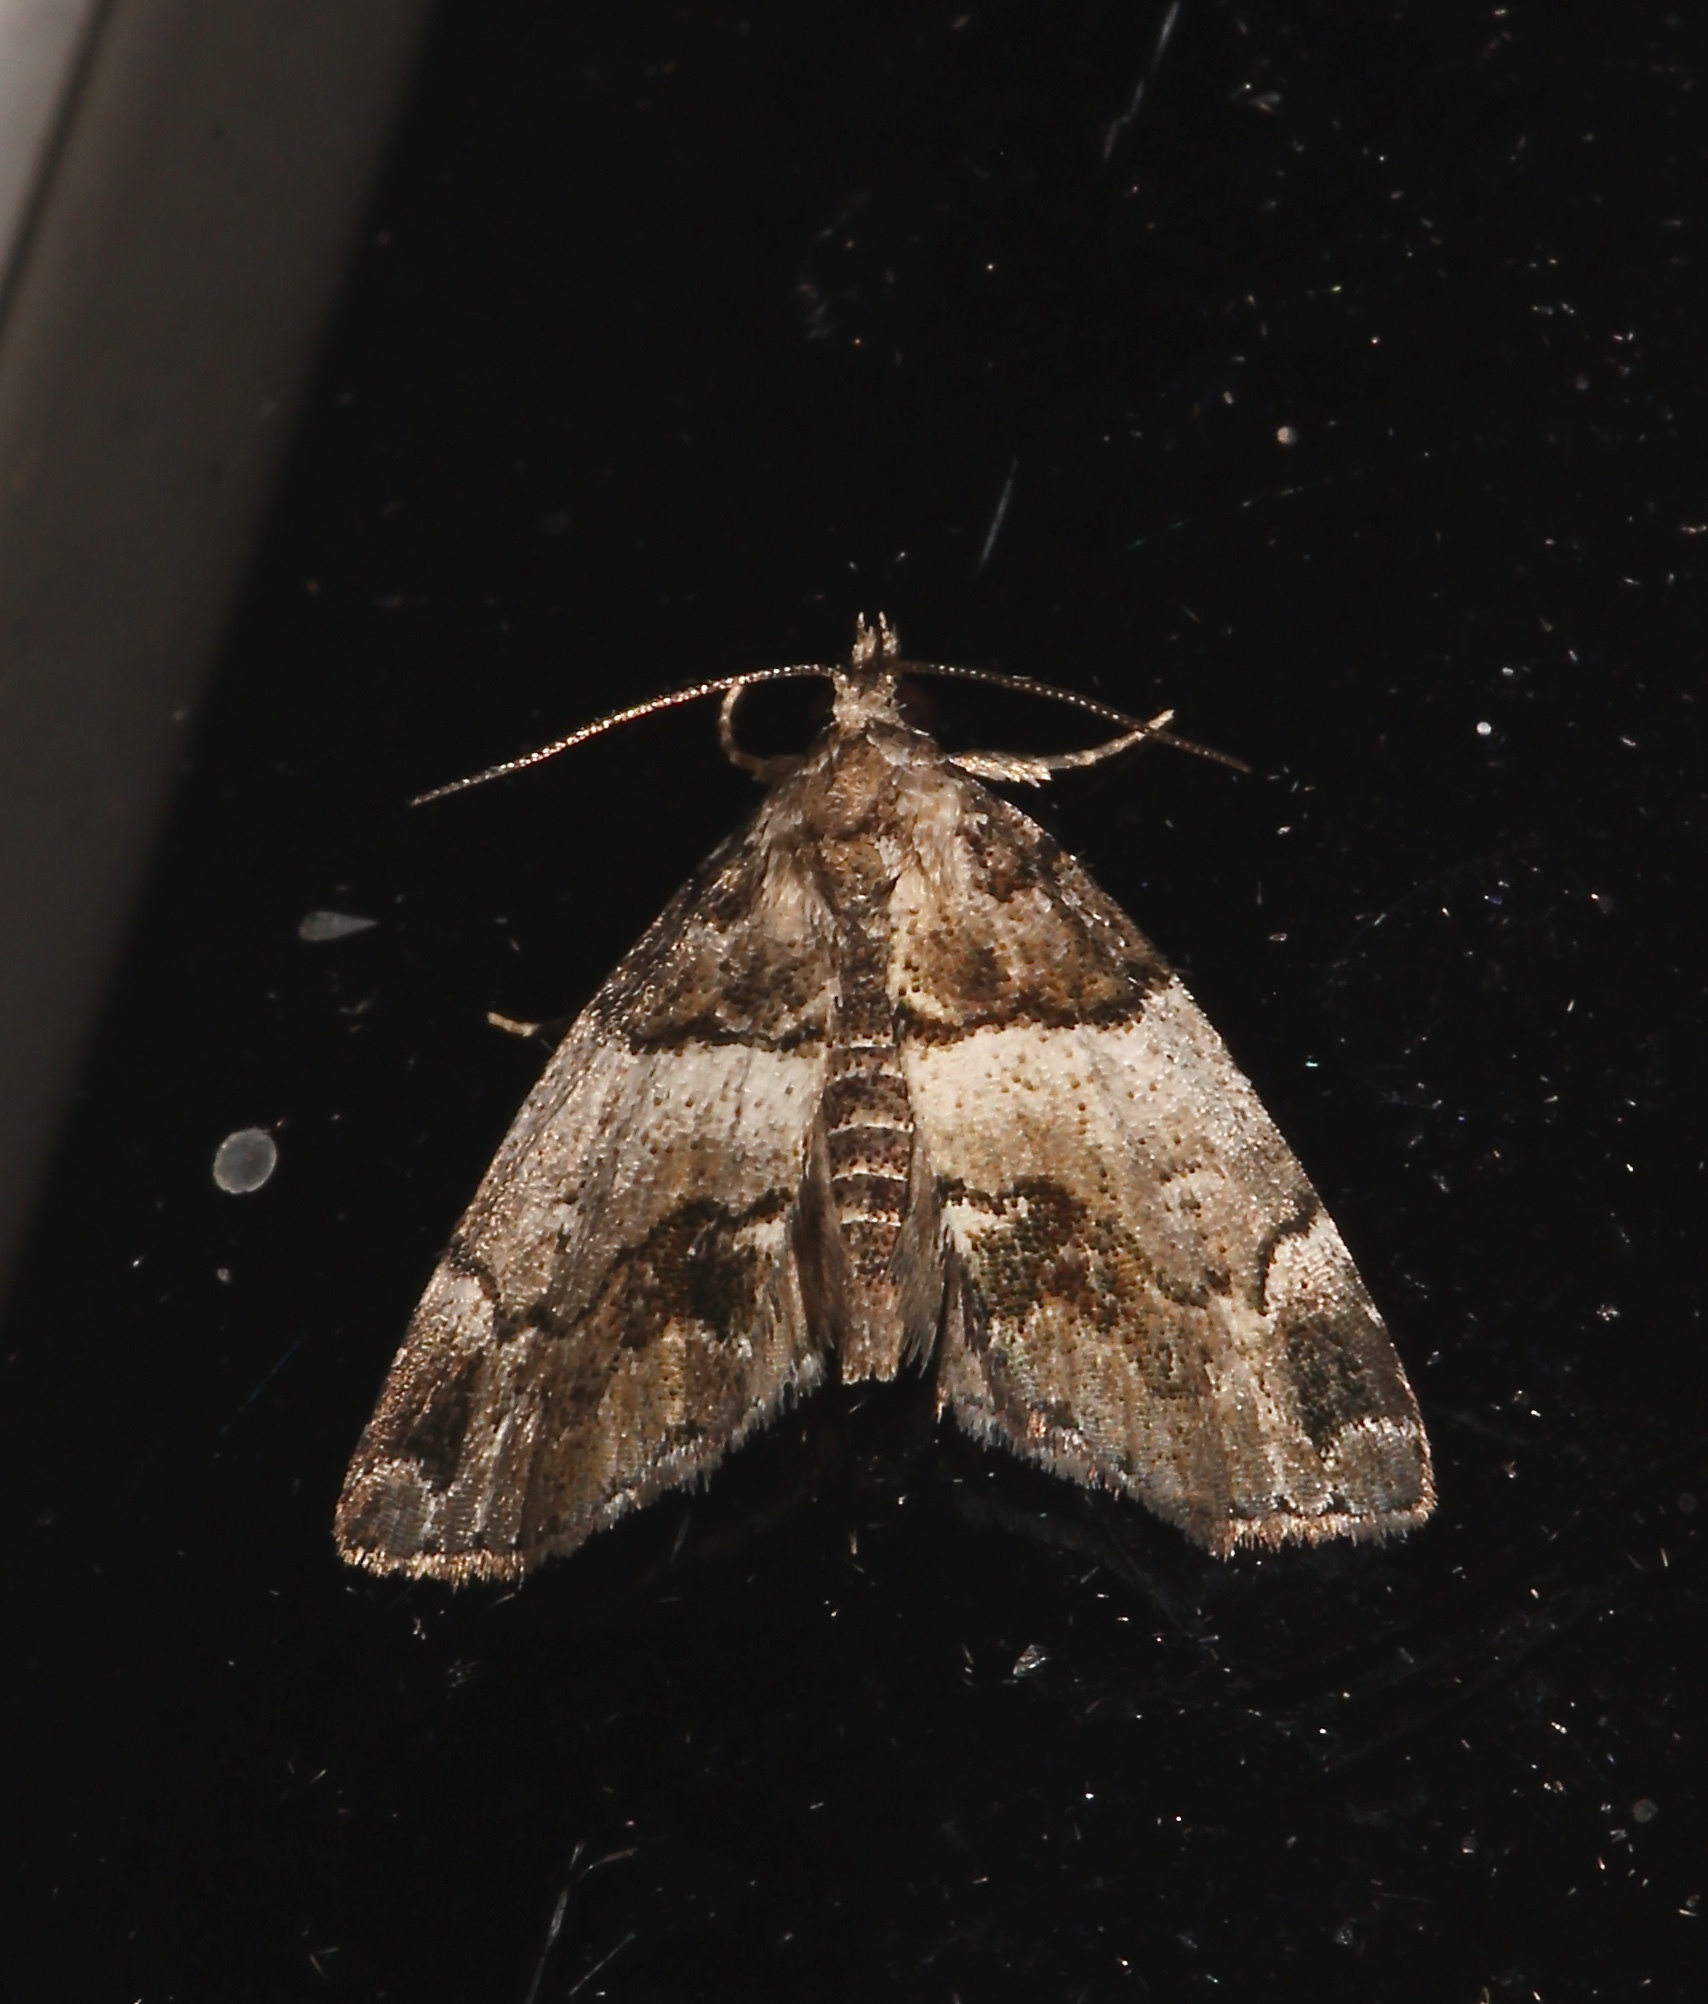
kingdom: Animalia
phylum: Arthropoda
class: Insecta
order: Lepidoptera
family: Erebidae
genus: Cutina
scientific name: Cutina distincta
